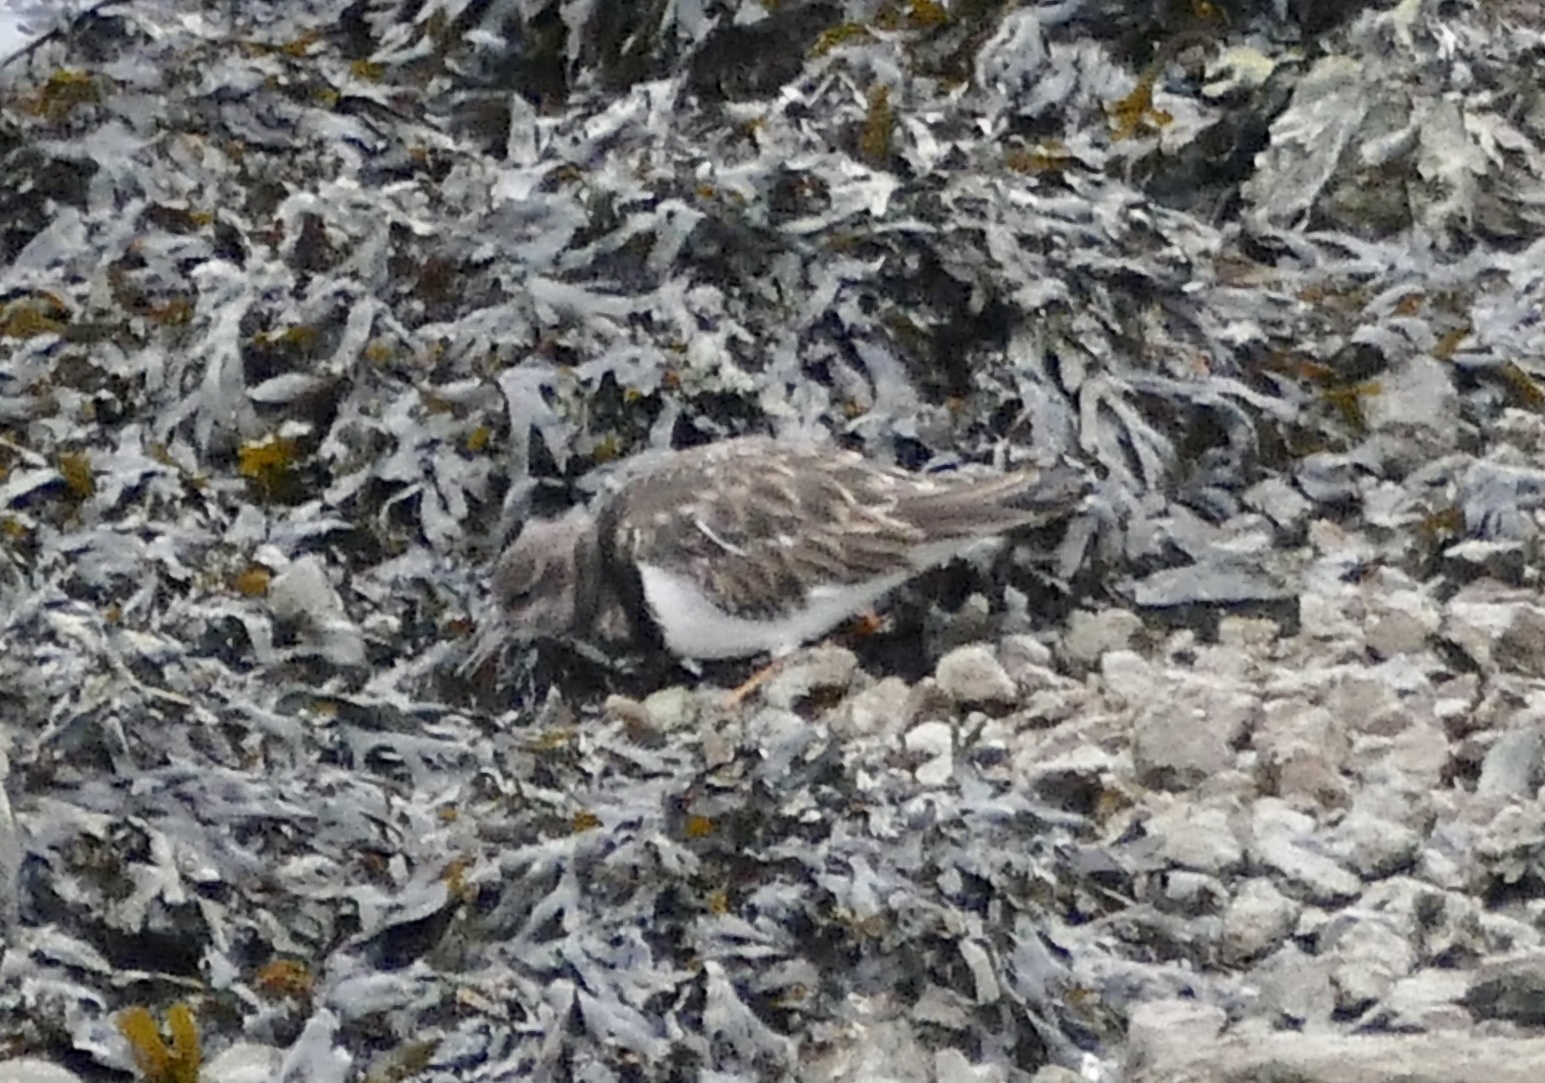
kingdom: Animalia
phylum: Chordata
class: Aves
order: Charadriiformes
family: Scolopacidae
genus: Arenaria
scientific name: Arenaria interpres
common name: Ruddy turnstone
